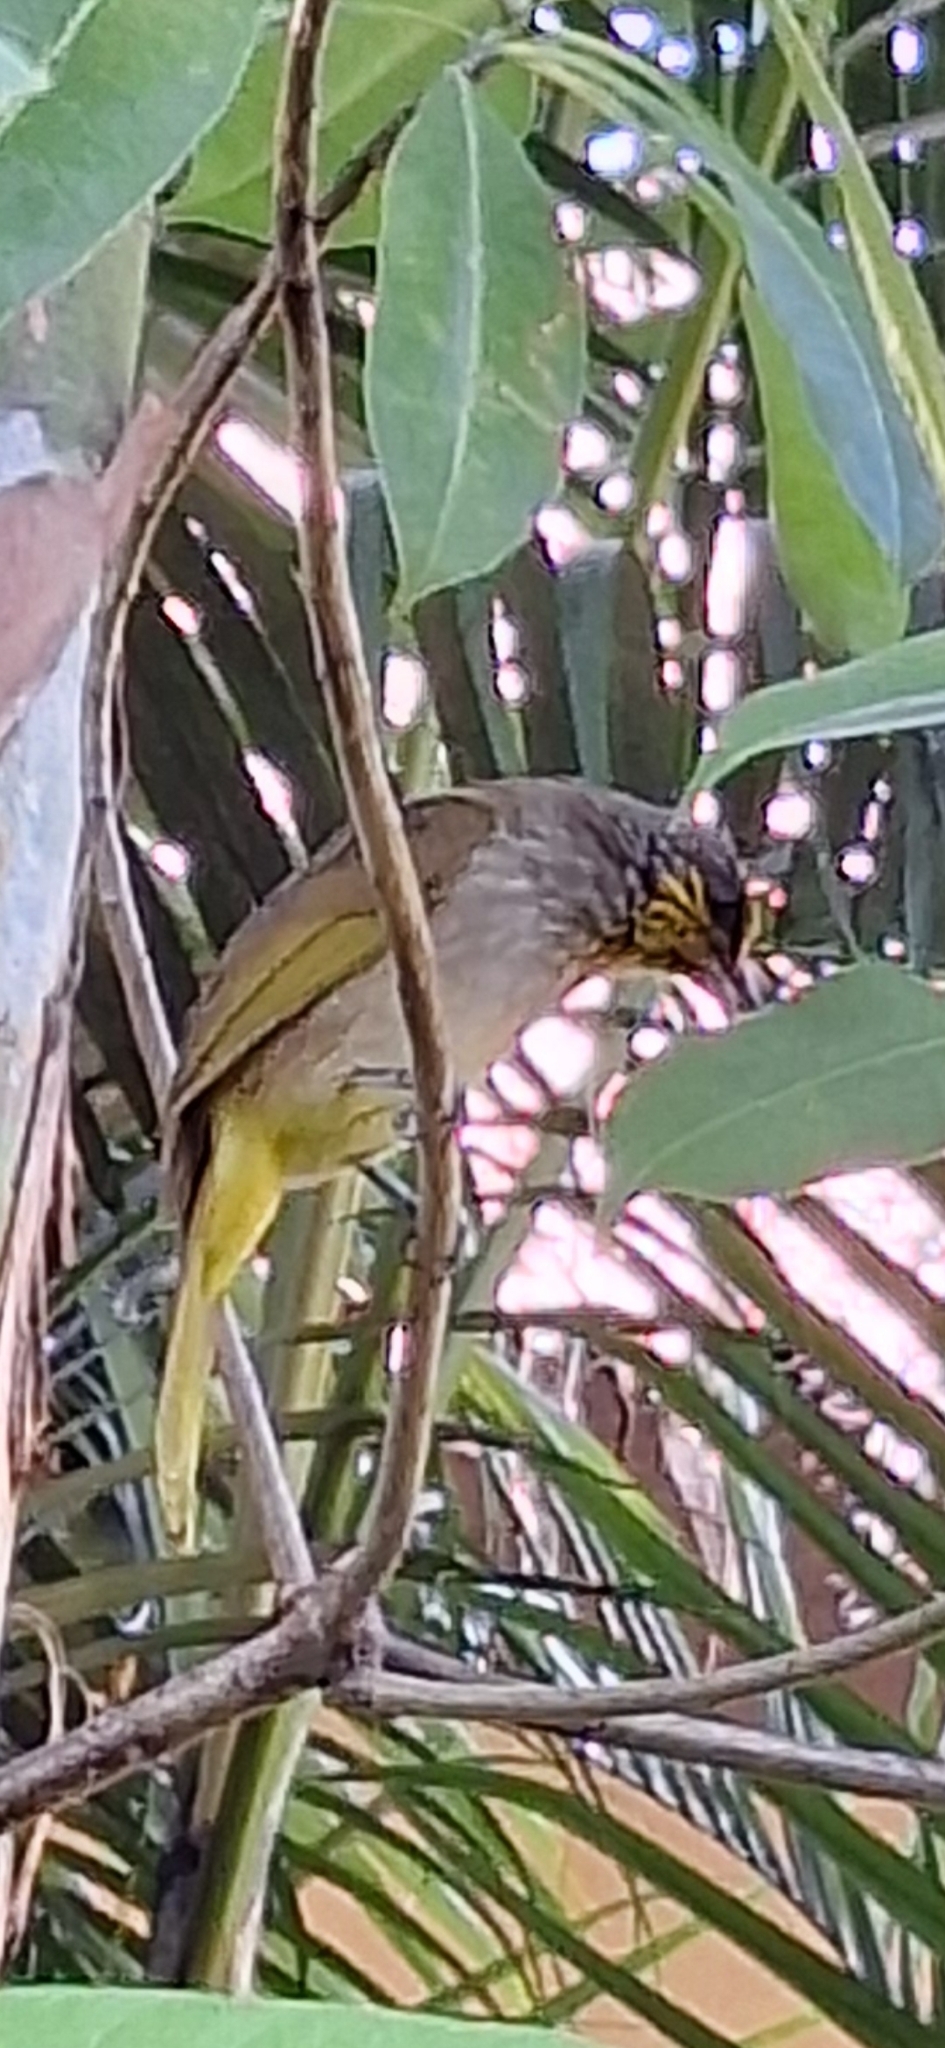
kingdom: Animalia
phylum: Chordata
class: Aves
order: Passeriformes
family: Pycnonotidae
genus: Pycnonotus
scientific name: Pycnonotus finlaysoni
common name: Stripe-throated bulbul
